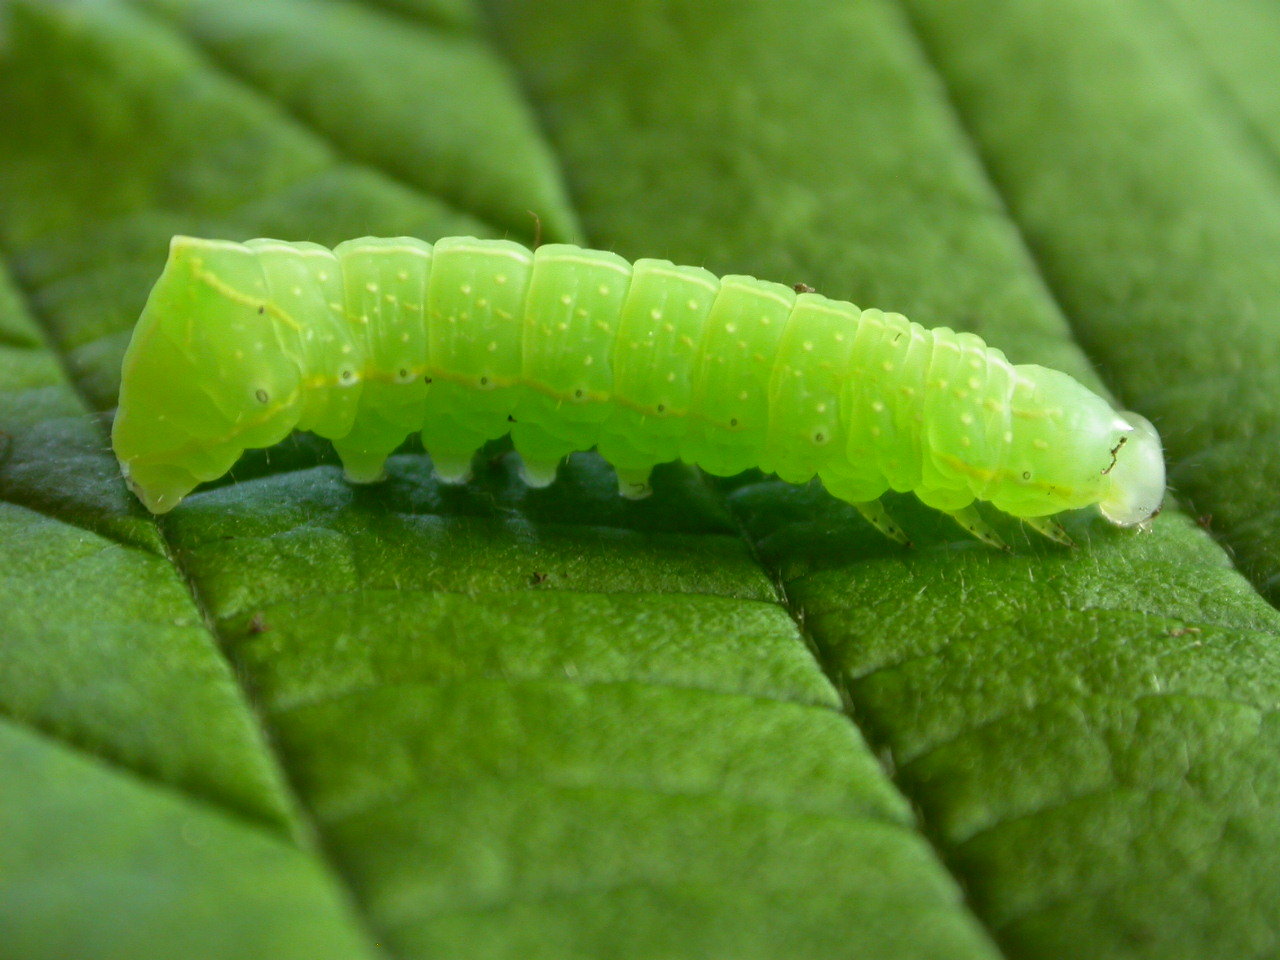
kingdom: Animalia
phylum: Arthropoda
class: Insecta
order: Lepidoptera
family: Noctuidae
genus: Amphipyra
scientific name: Amphipyra pyramidea
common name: Copper underwing
